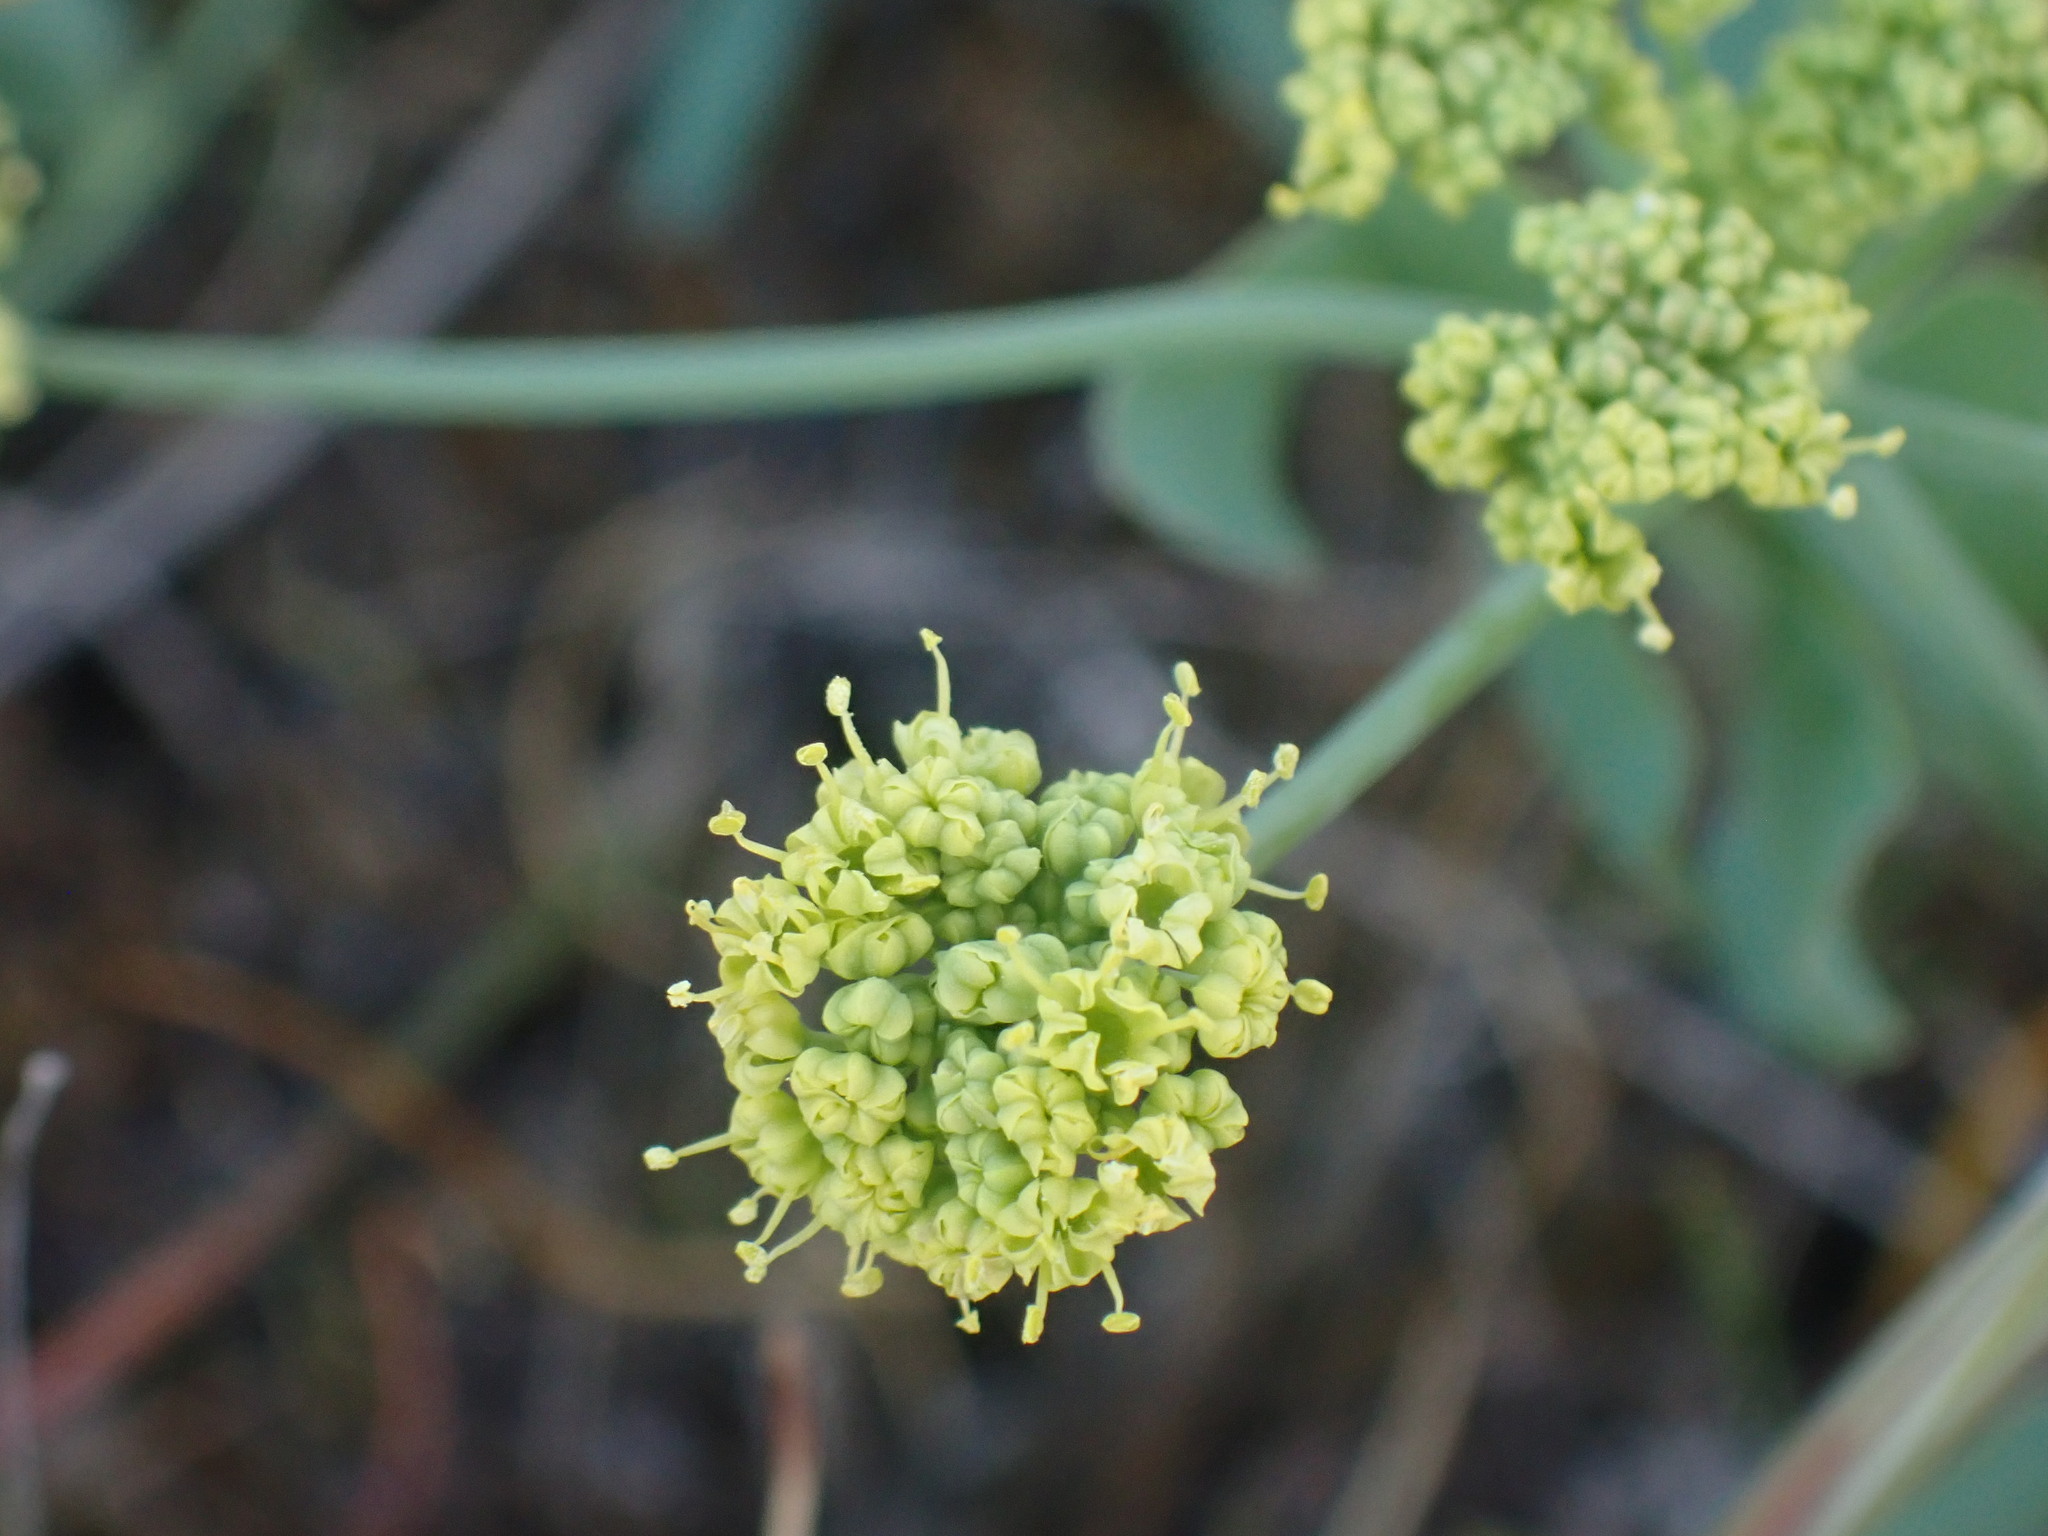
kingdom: Plantae
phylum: Tracheophyta
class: Magnoliopsida
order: Apiales
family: Apiaceae
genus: Lomatium
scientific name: Lomatium nudicaule
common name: Pestle lomatium
